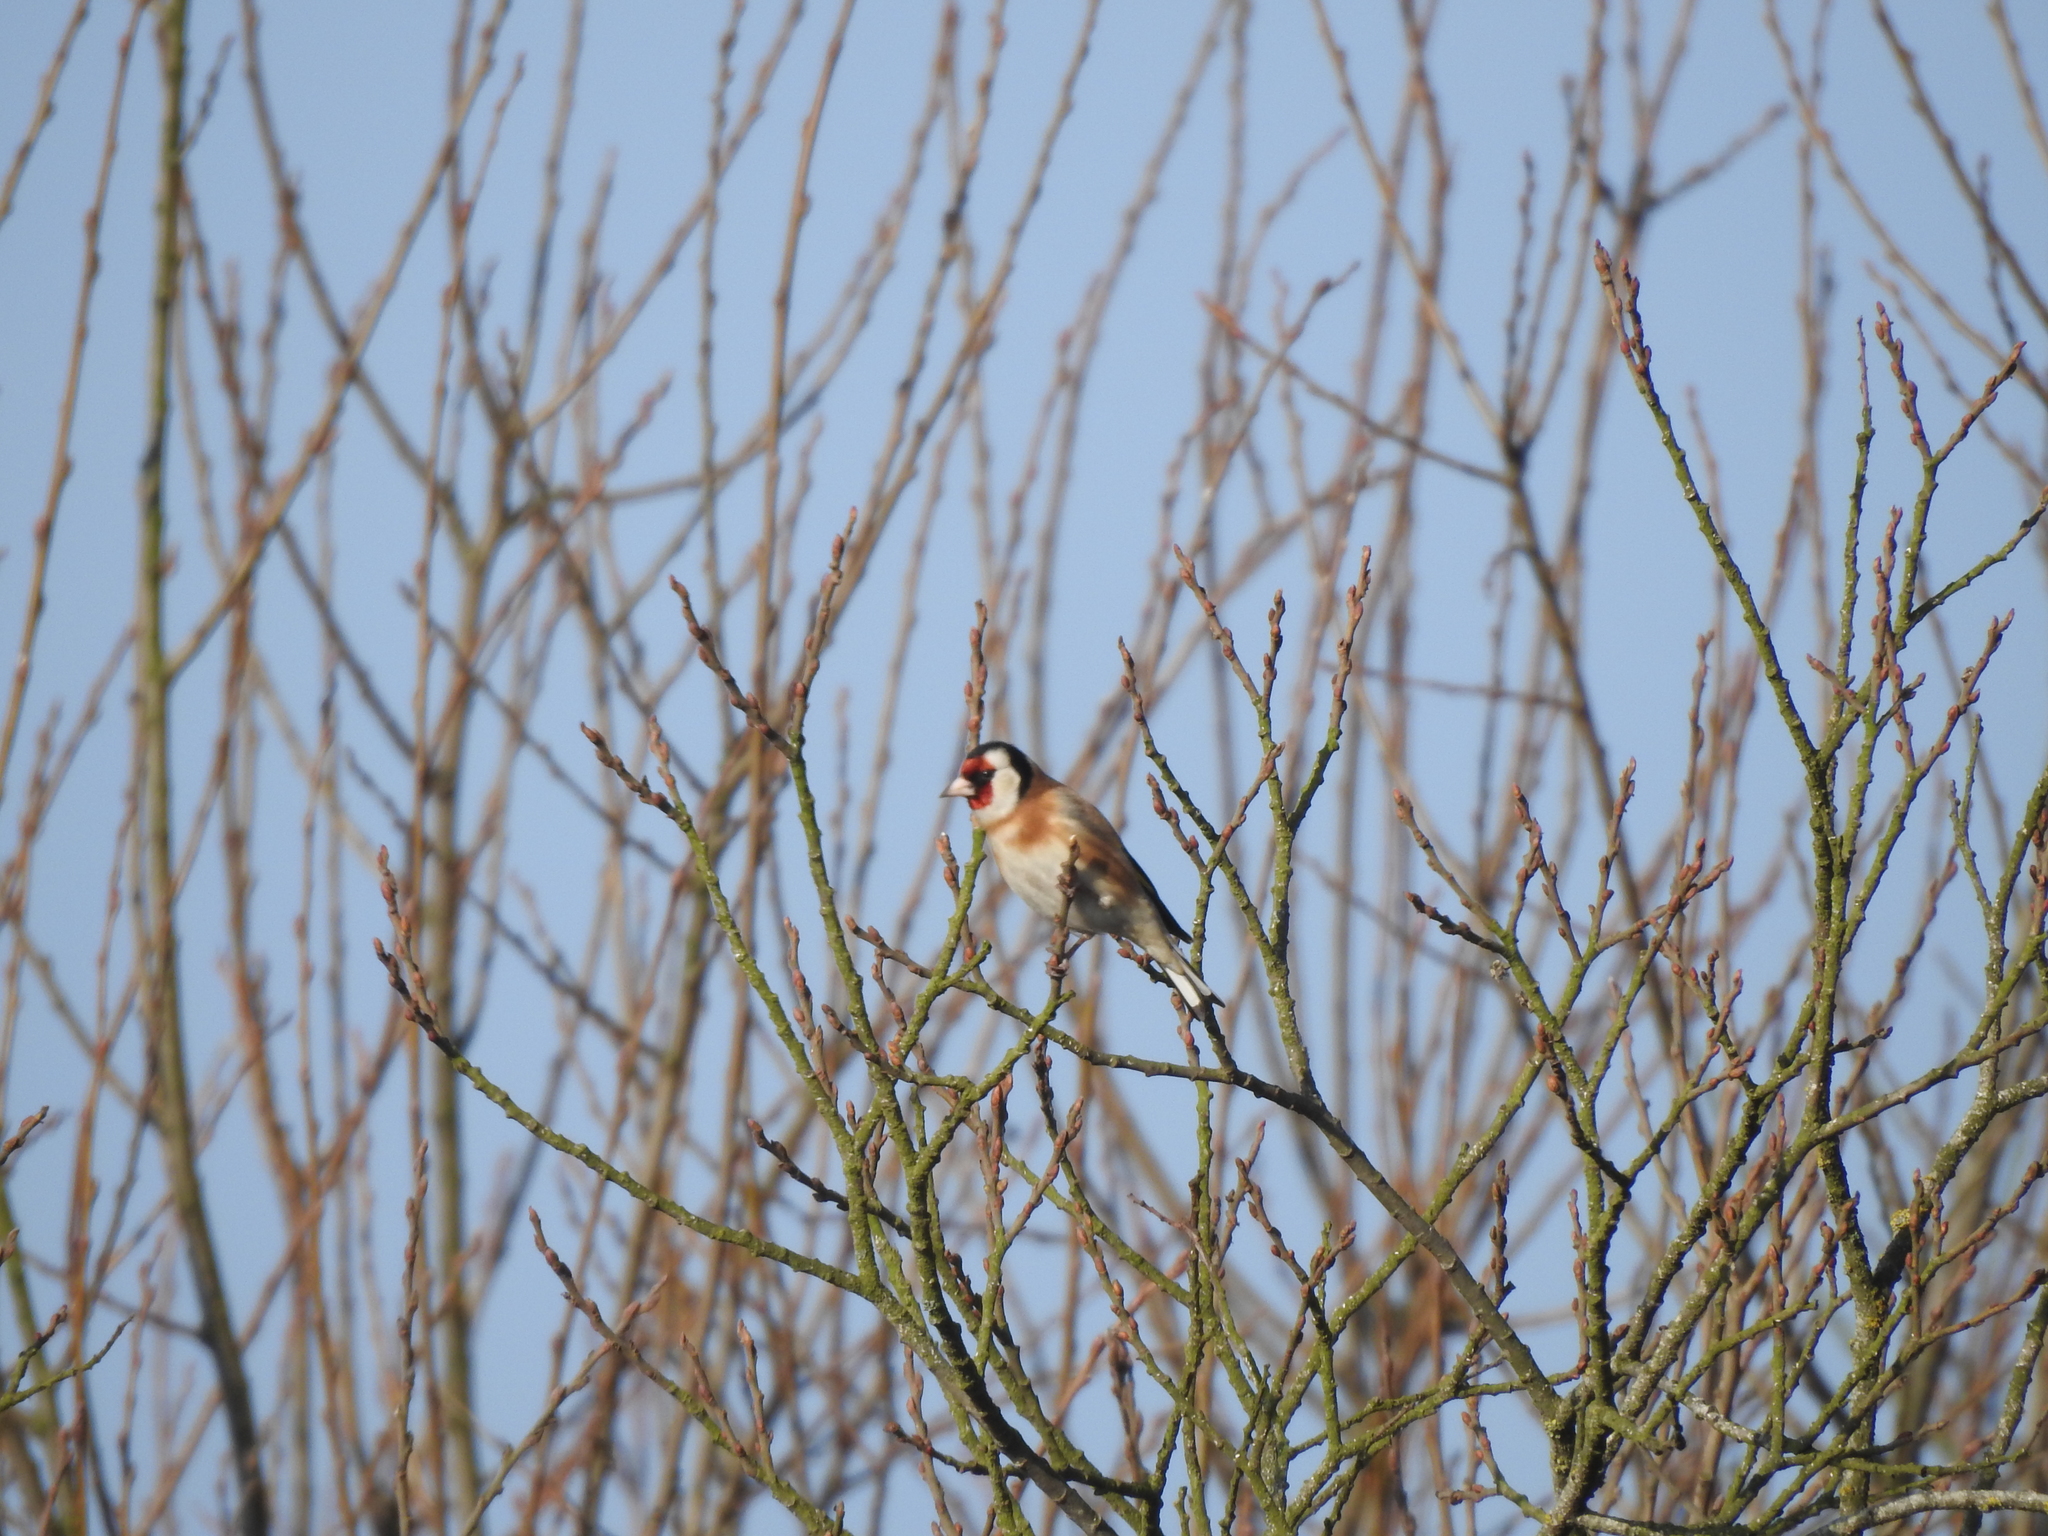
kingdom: Animalia
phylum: Chordata
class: Aves
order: Passeriformes
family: Fringillidae
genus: Carduelis
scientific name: Carduelis carduelis
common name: European goldfinch
